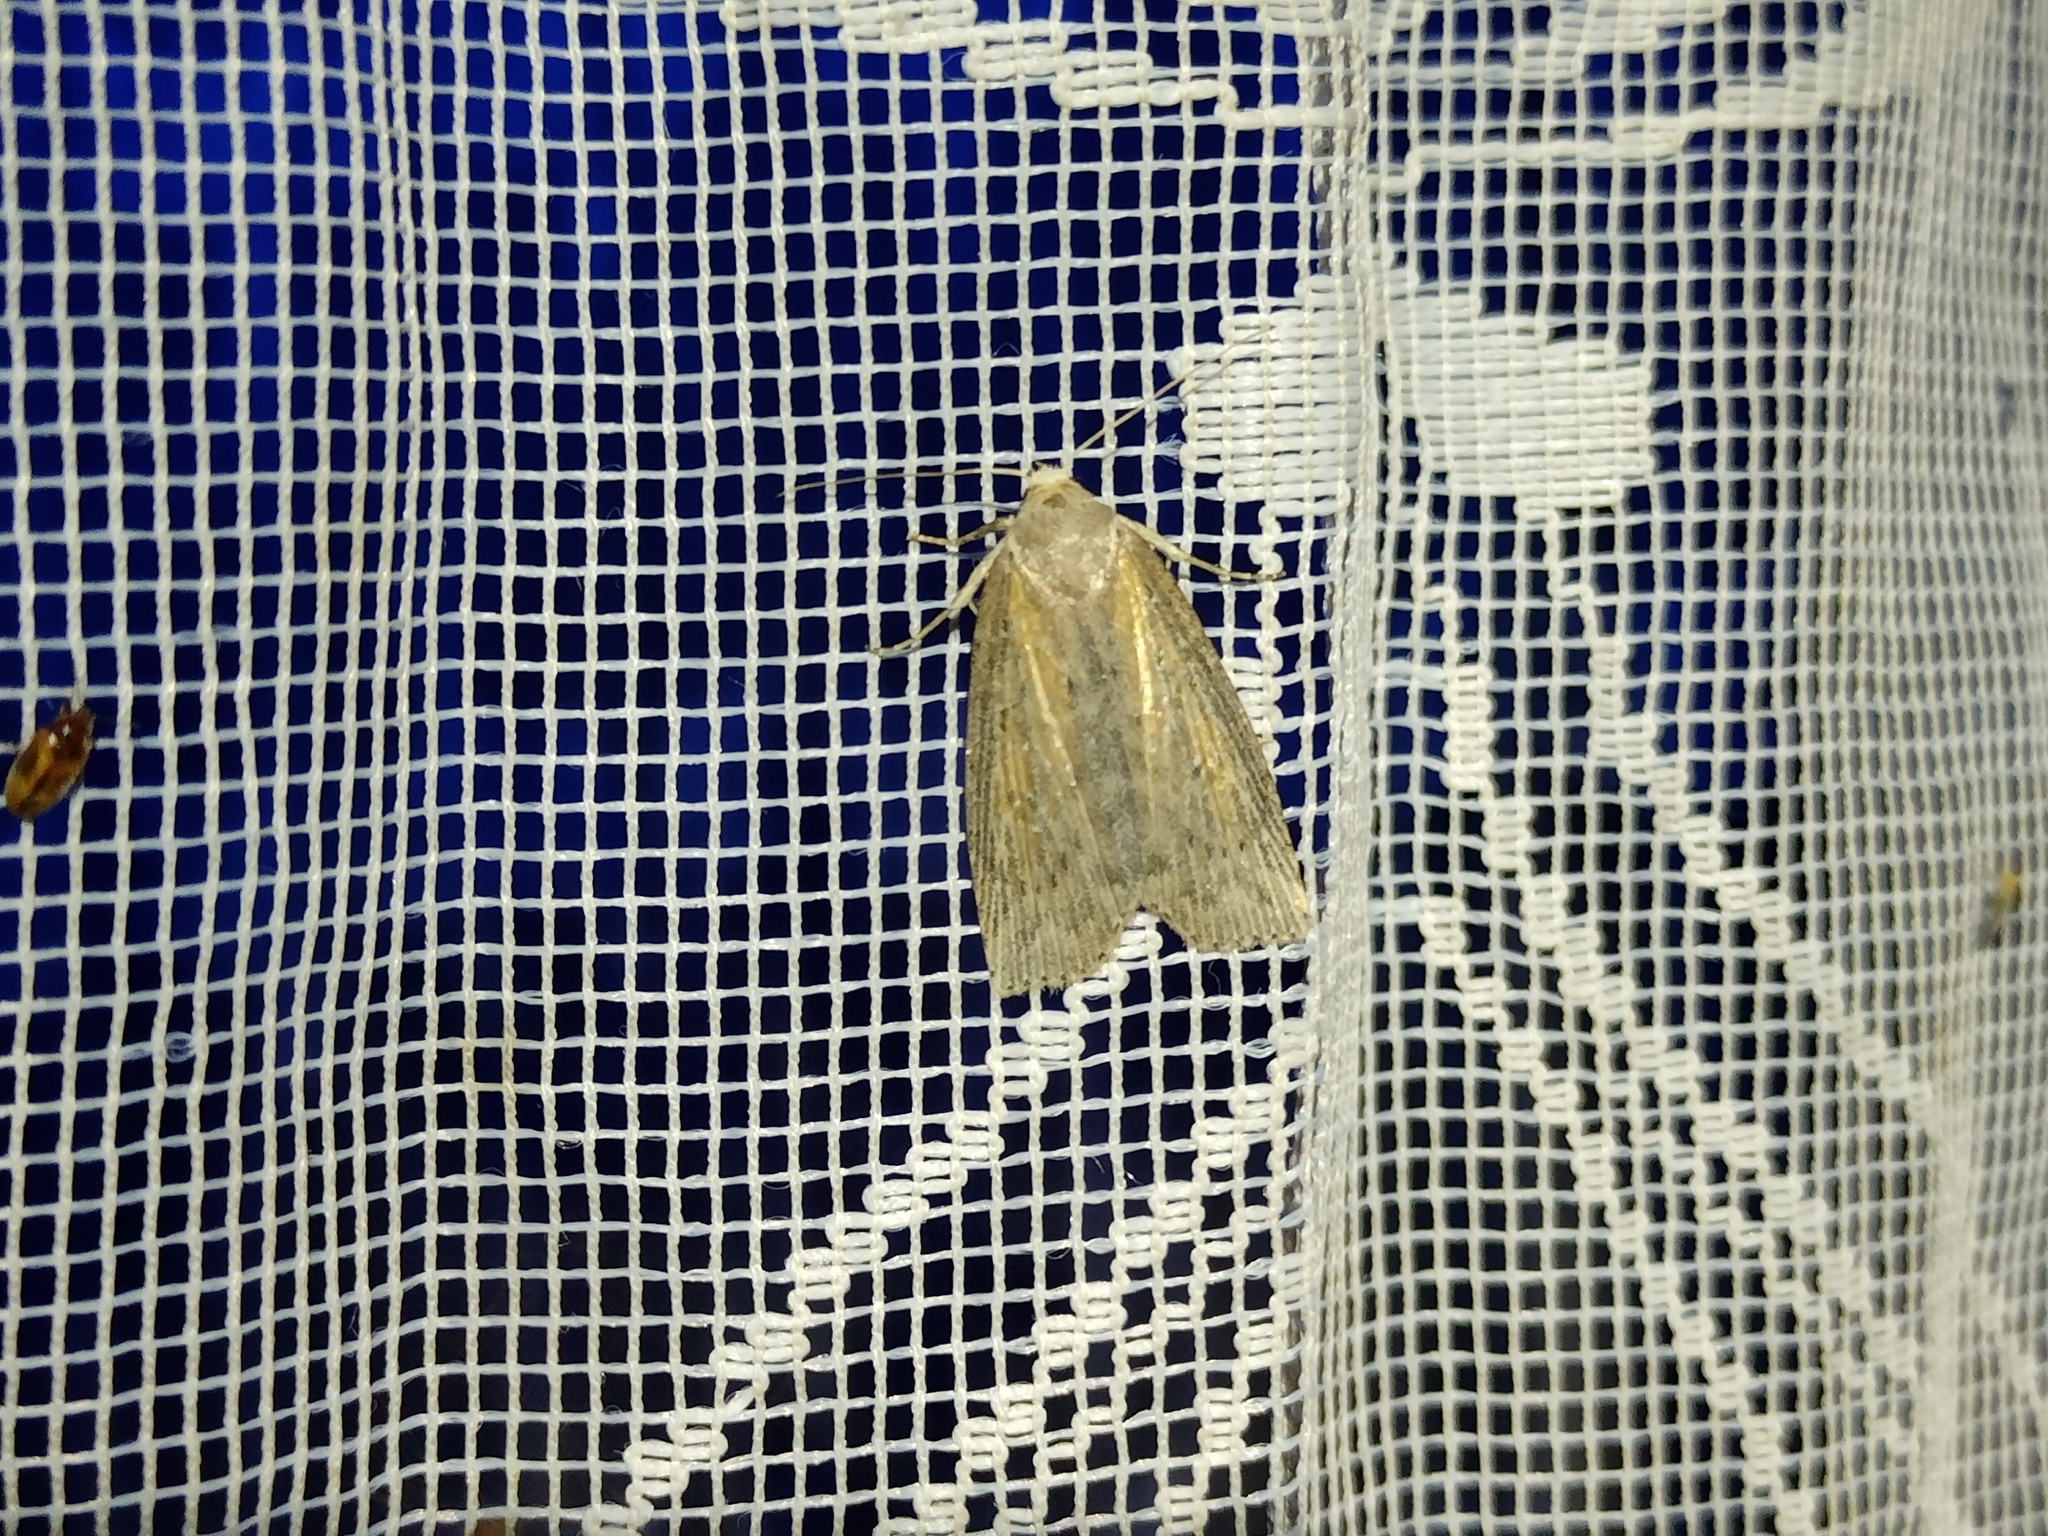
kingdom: Animalia
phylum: Arthropoda
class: Insecta
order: Lepidoptera
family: Noctuidae
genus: Chilodes
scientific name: Chilodes maritima
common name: Silky wainscot
